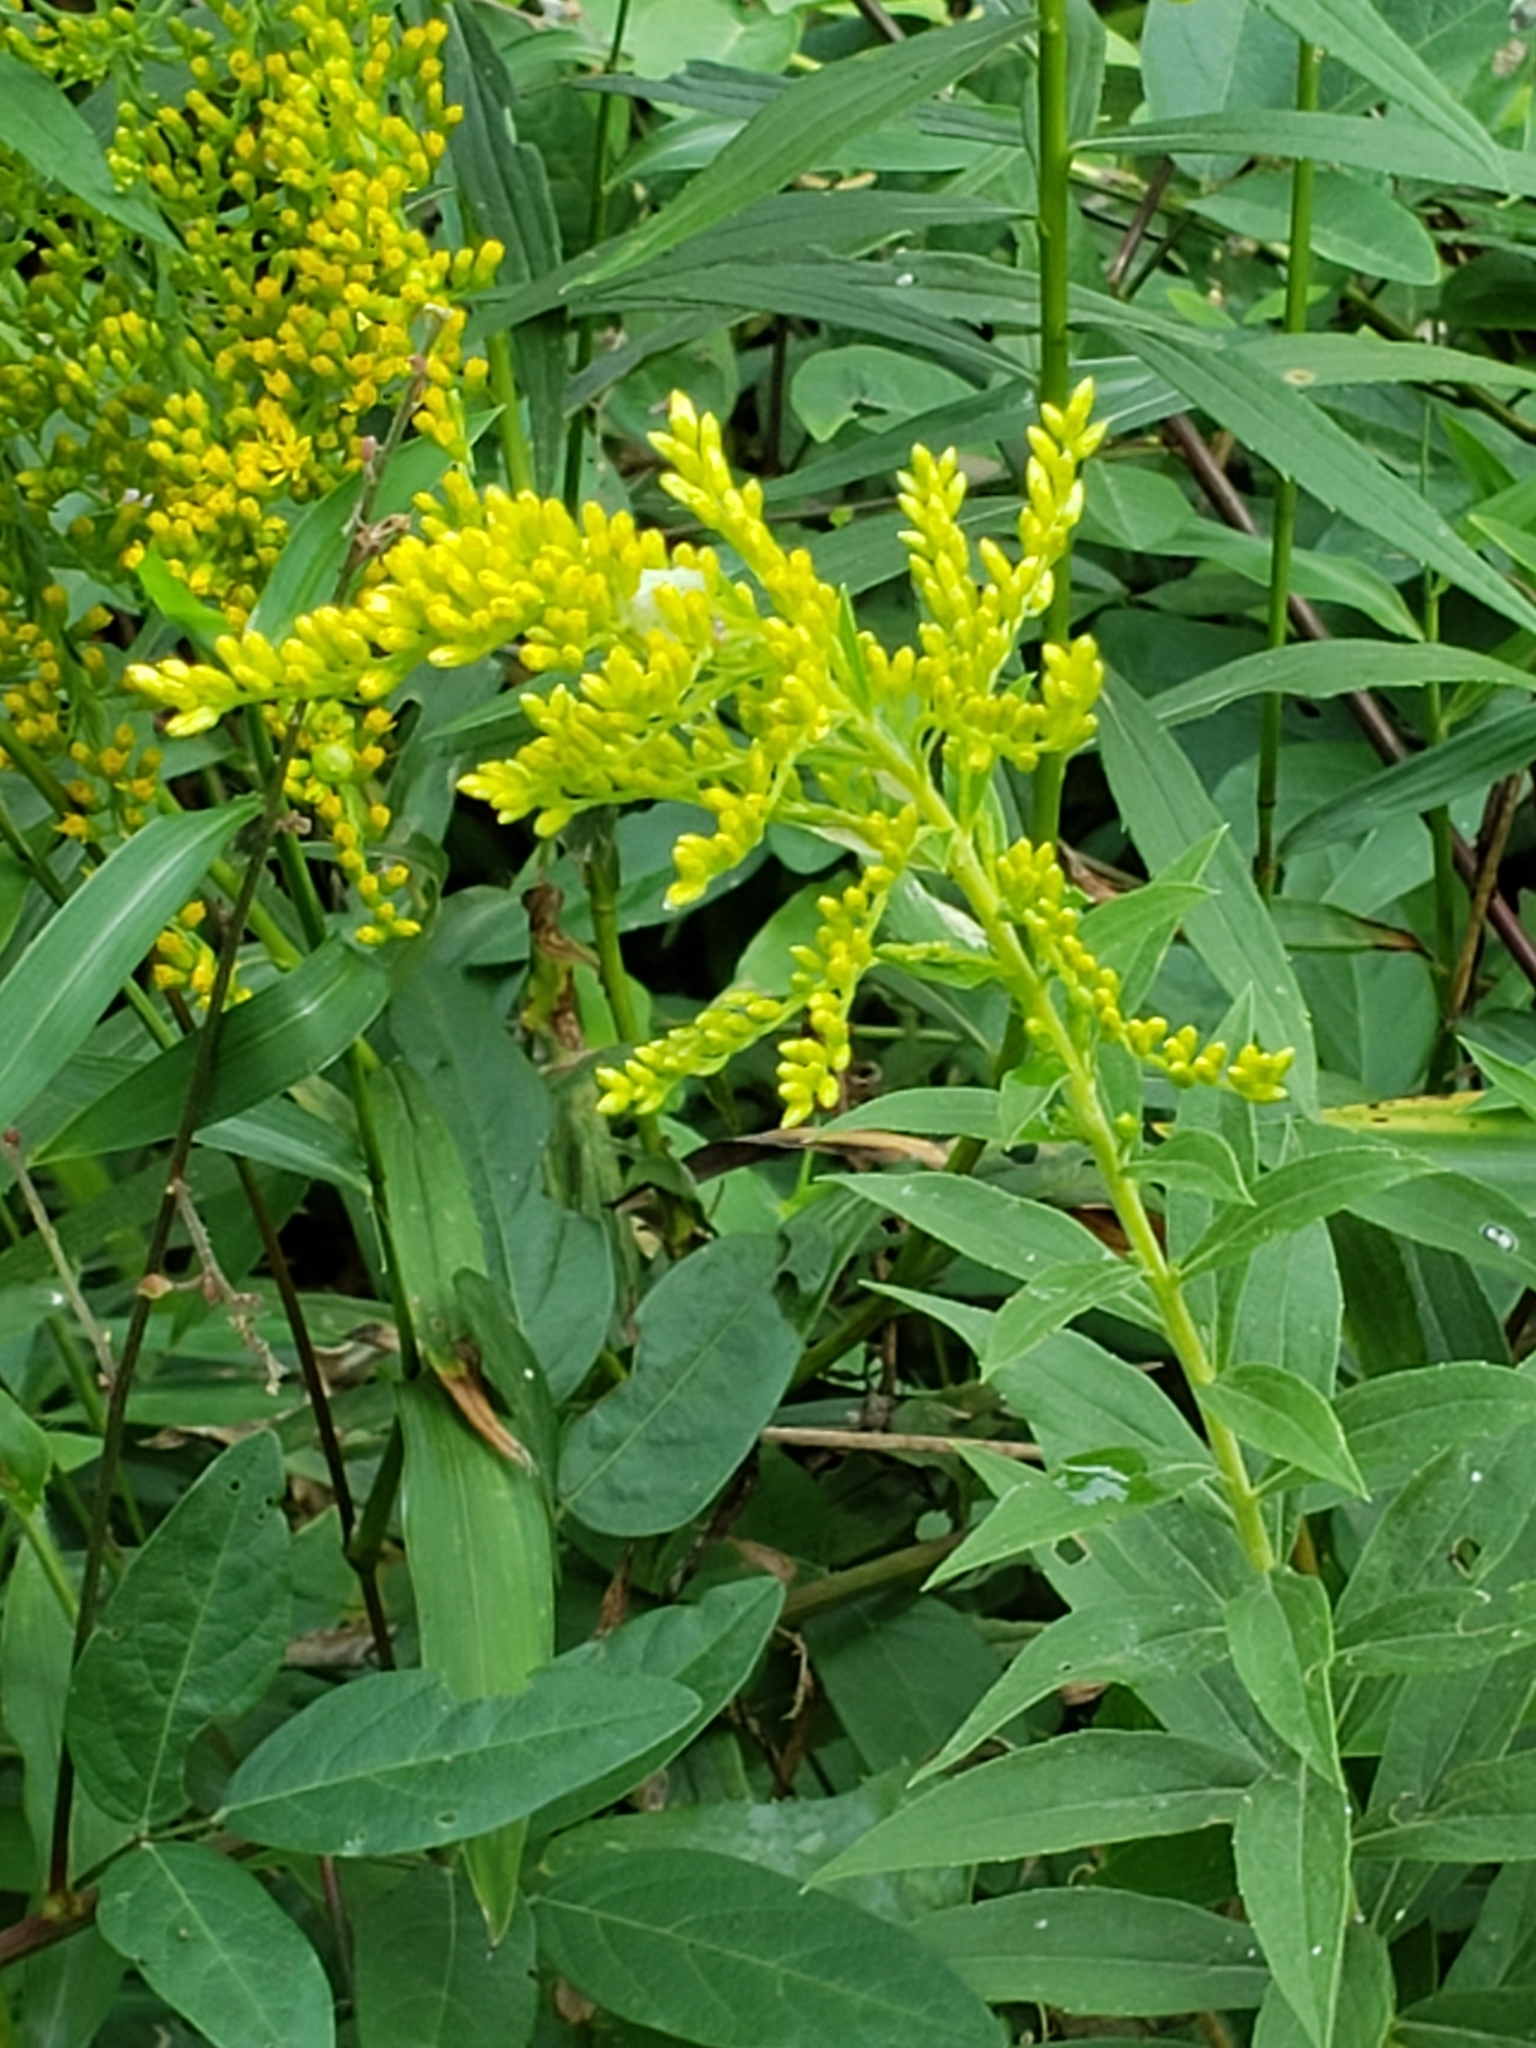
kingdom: Plantae
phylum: Tracheophyta
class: Magnoliopsida
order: Asterales
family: Asteraceae
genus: Solidago
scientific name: Solidago altissima
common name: Late goldenrod
